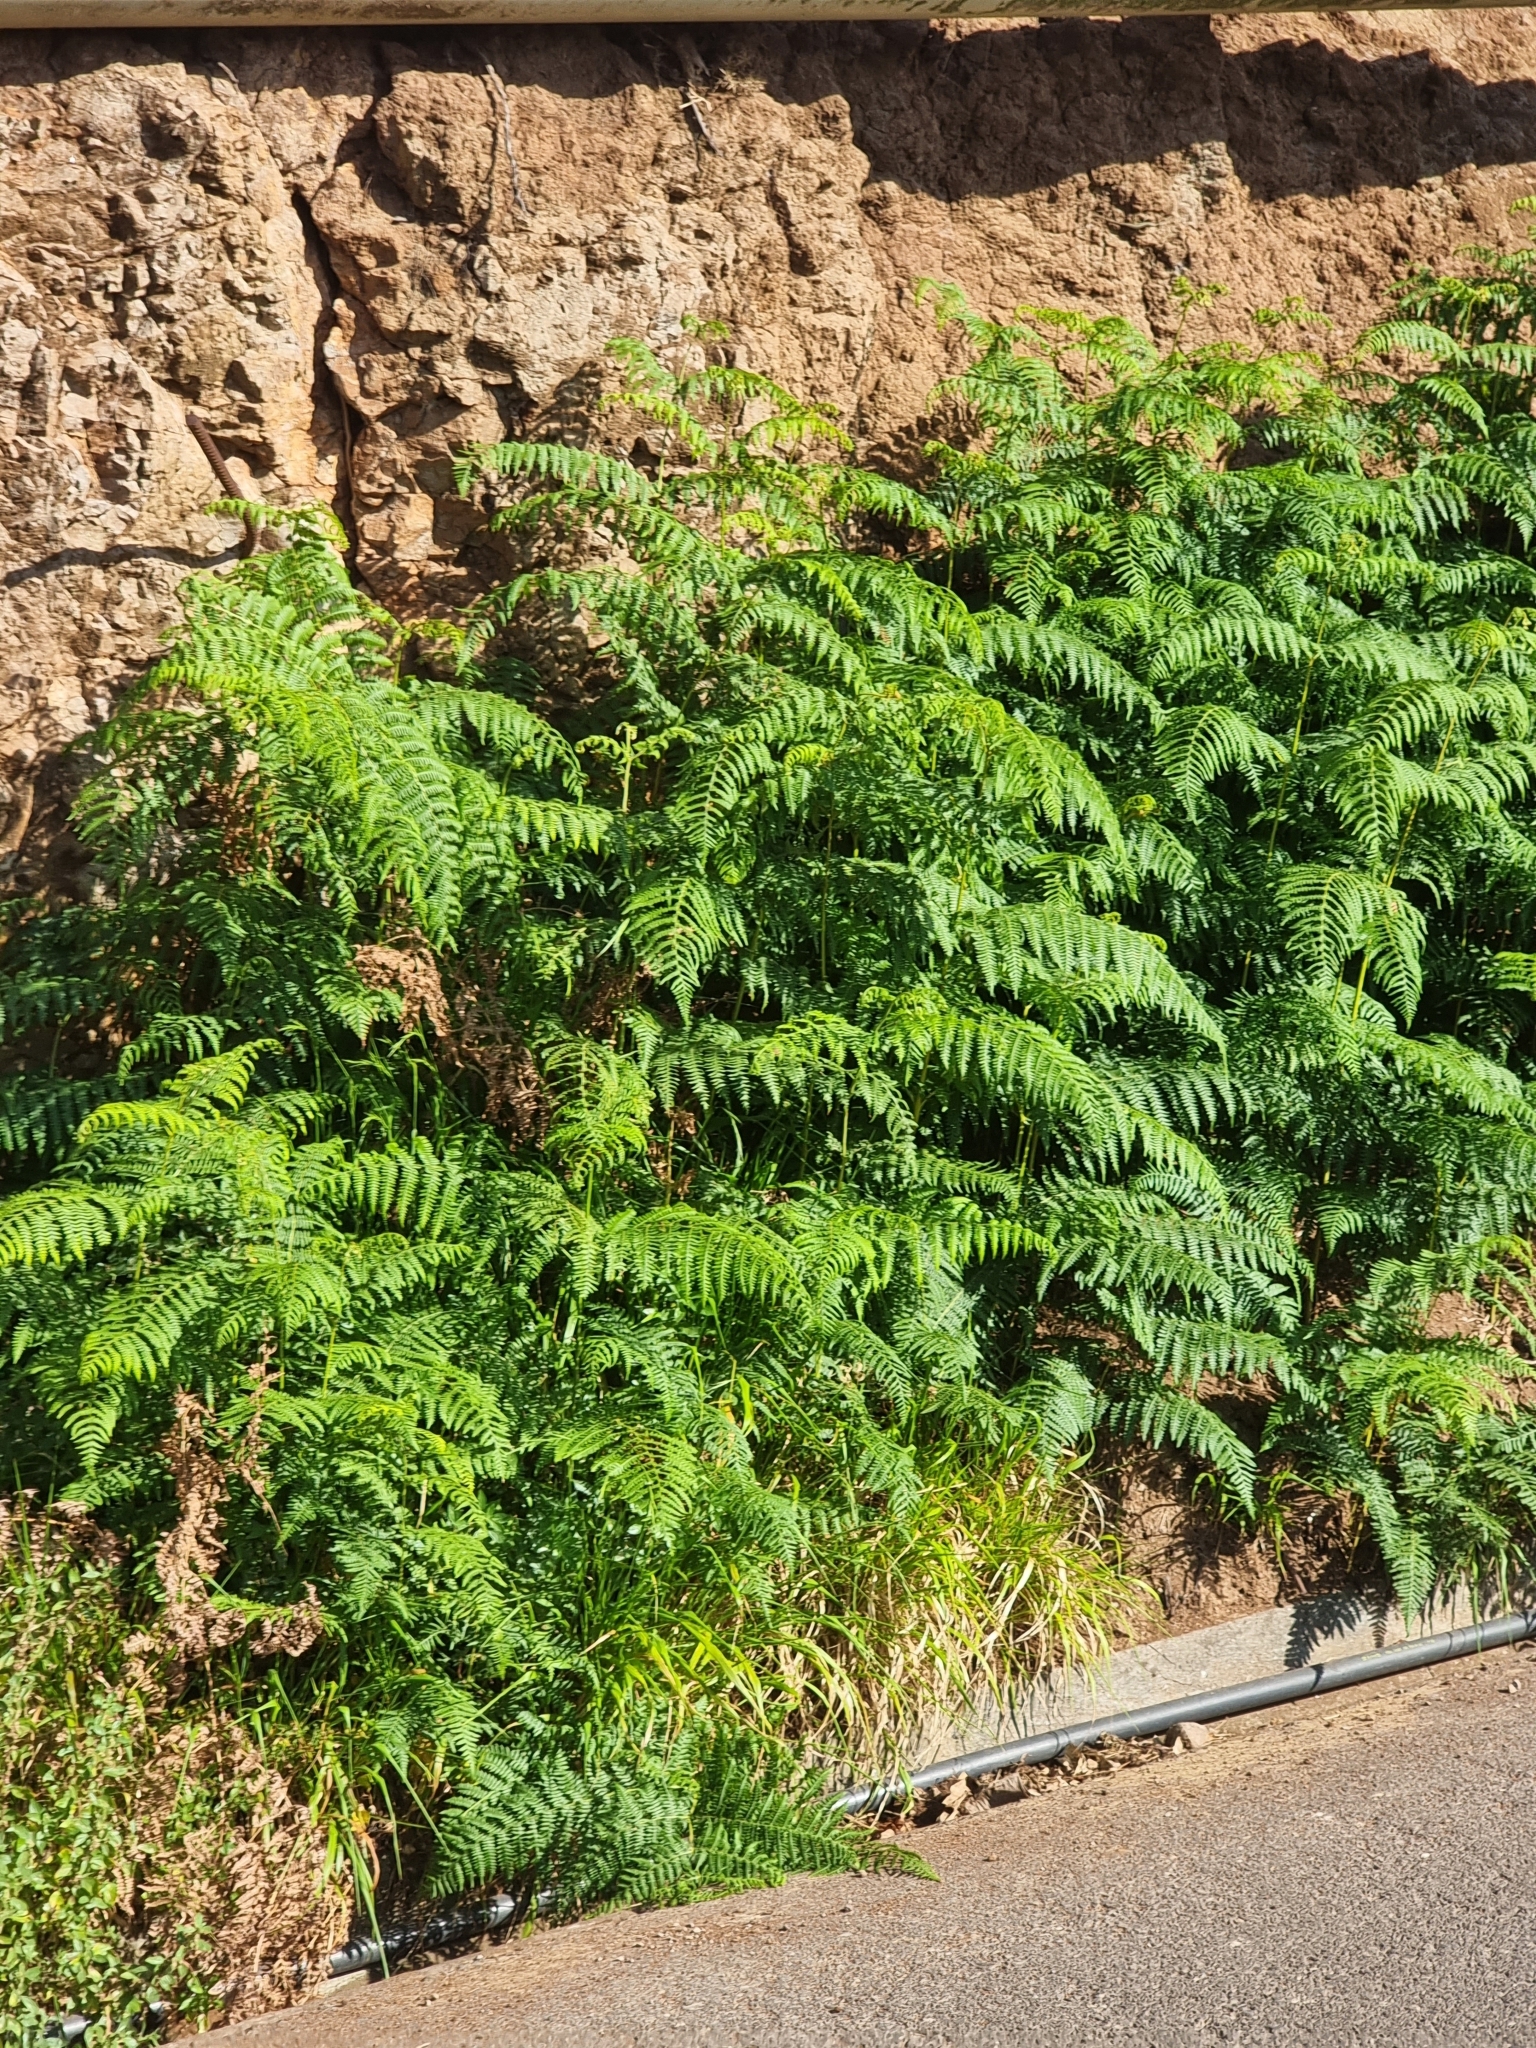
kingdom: Plantae
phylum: Tracheophyta
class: Polypodiopsida
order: Polypodiales
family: Dennstaedtiaceae
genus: Pteridium
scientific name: Pteridium aquilinum
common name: Bracken
